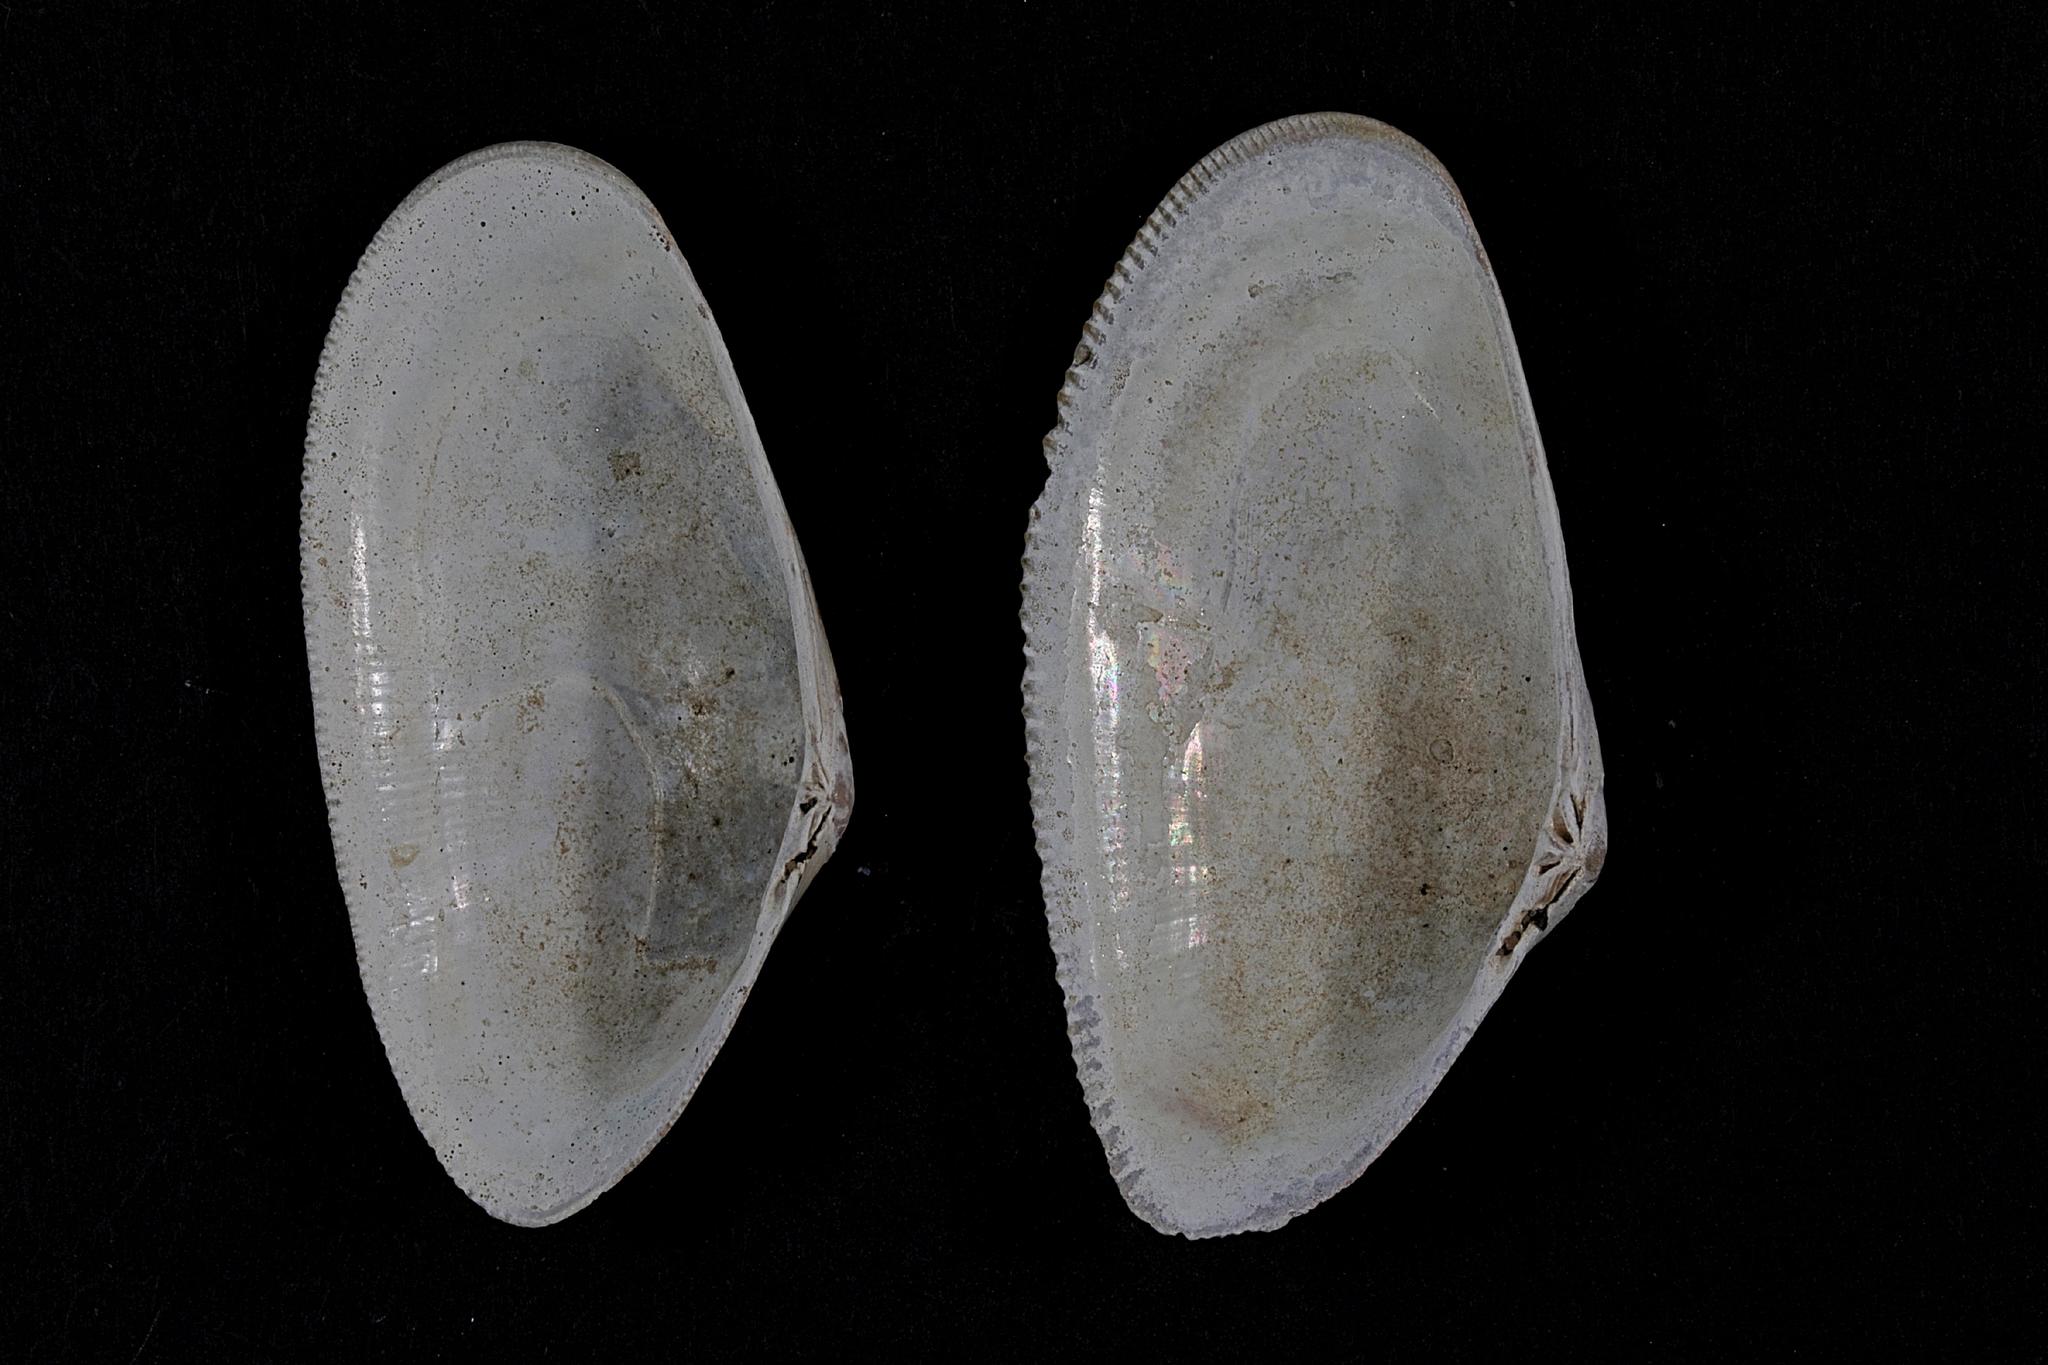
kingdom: Animalia
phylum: Mollusca
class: Bivalvia
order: Cardiida
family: Donacidae
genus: Donax
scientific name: Donax vittatus
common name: Banded wedge-shell
